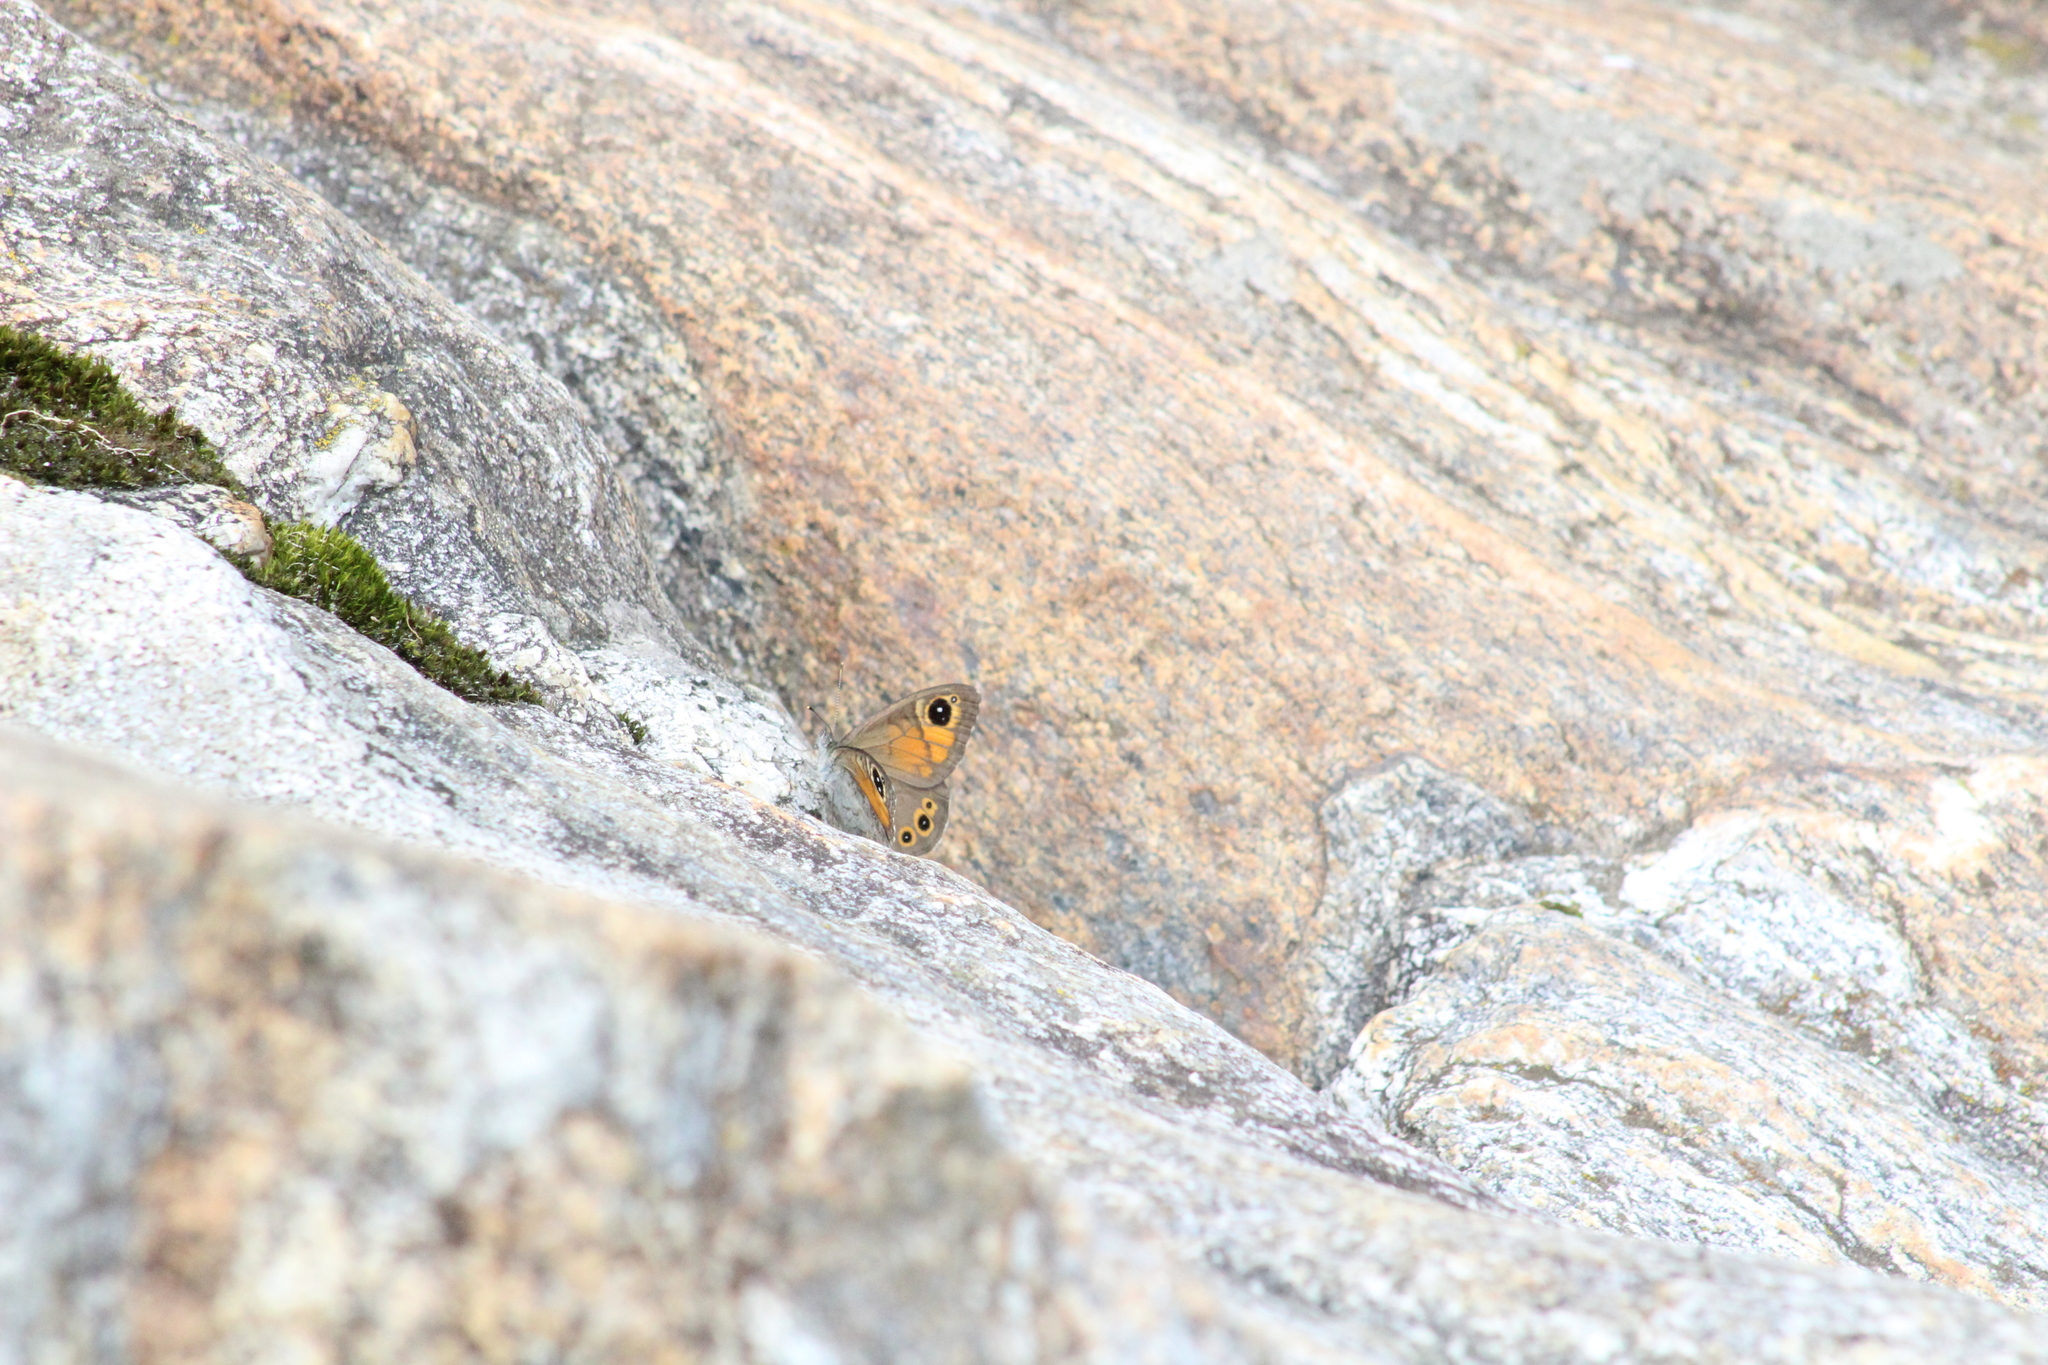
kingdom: Animalia
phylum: Arthropoda
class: Insecta
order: Lepidoptera
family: Nymphalidae
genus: Pararge
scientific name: Pararge Lasiommata maera
